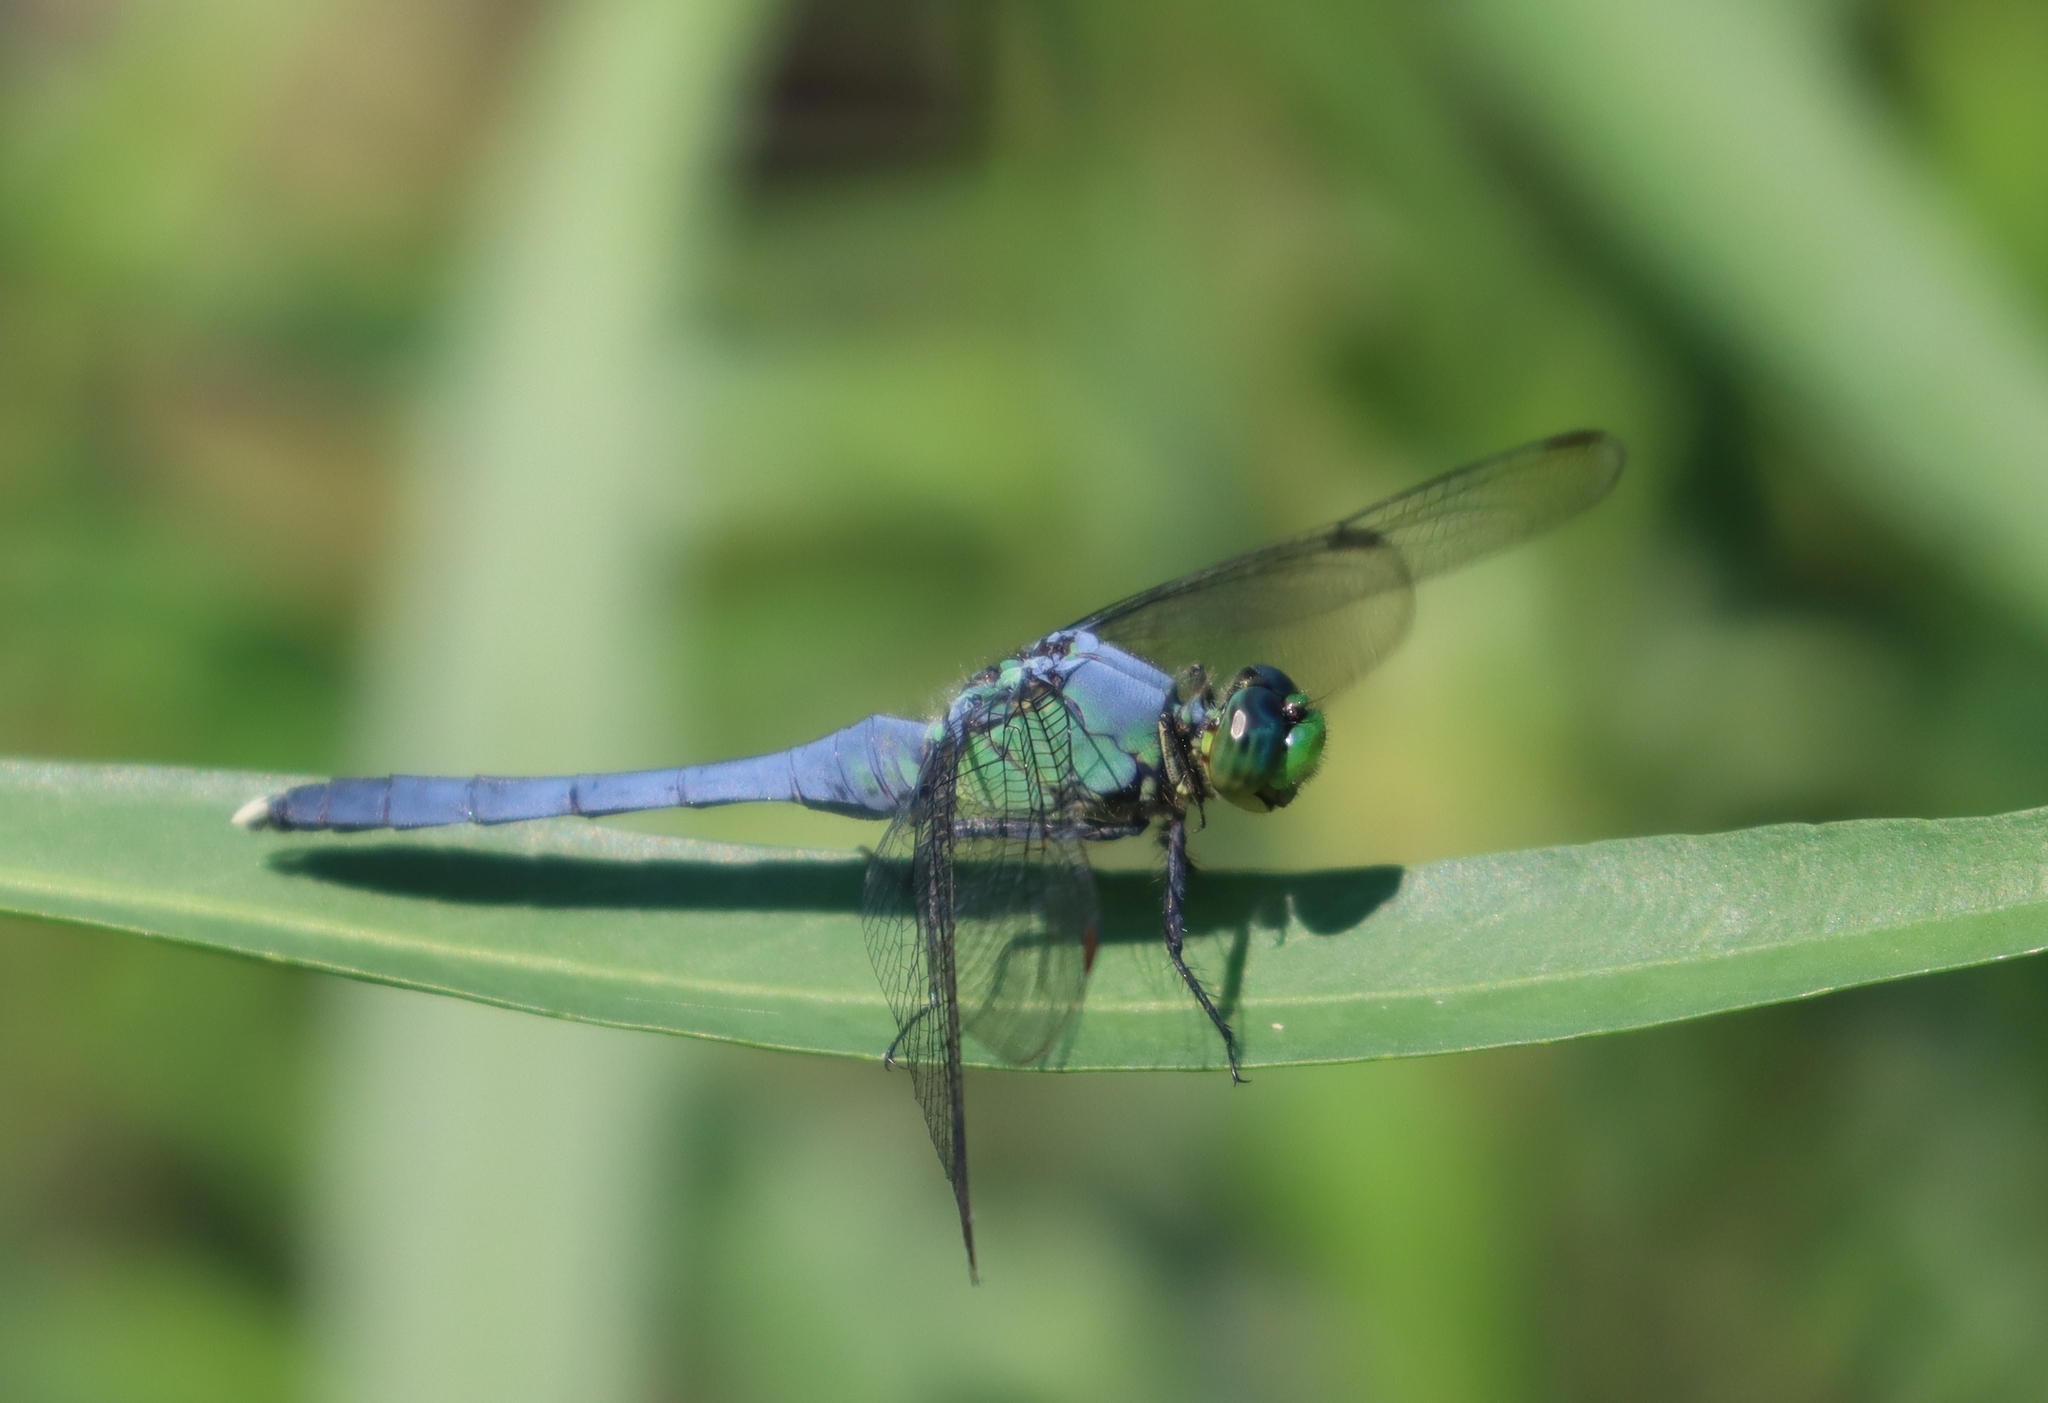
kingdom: Animalia
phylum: Arthropoda
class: Insecta
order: Odonata
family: Libellulidae
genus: Erythemis
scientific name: Erythemis simplicicollis
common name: Eastern pondhawk
